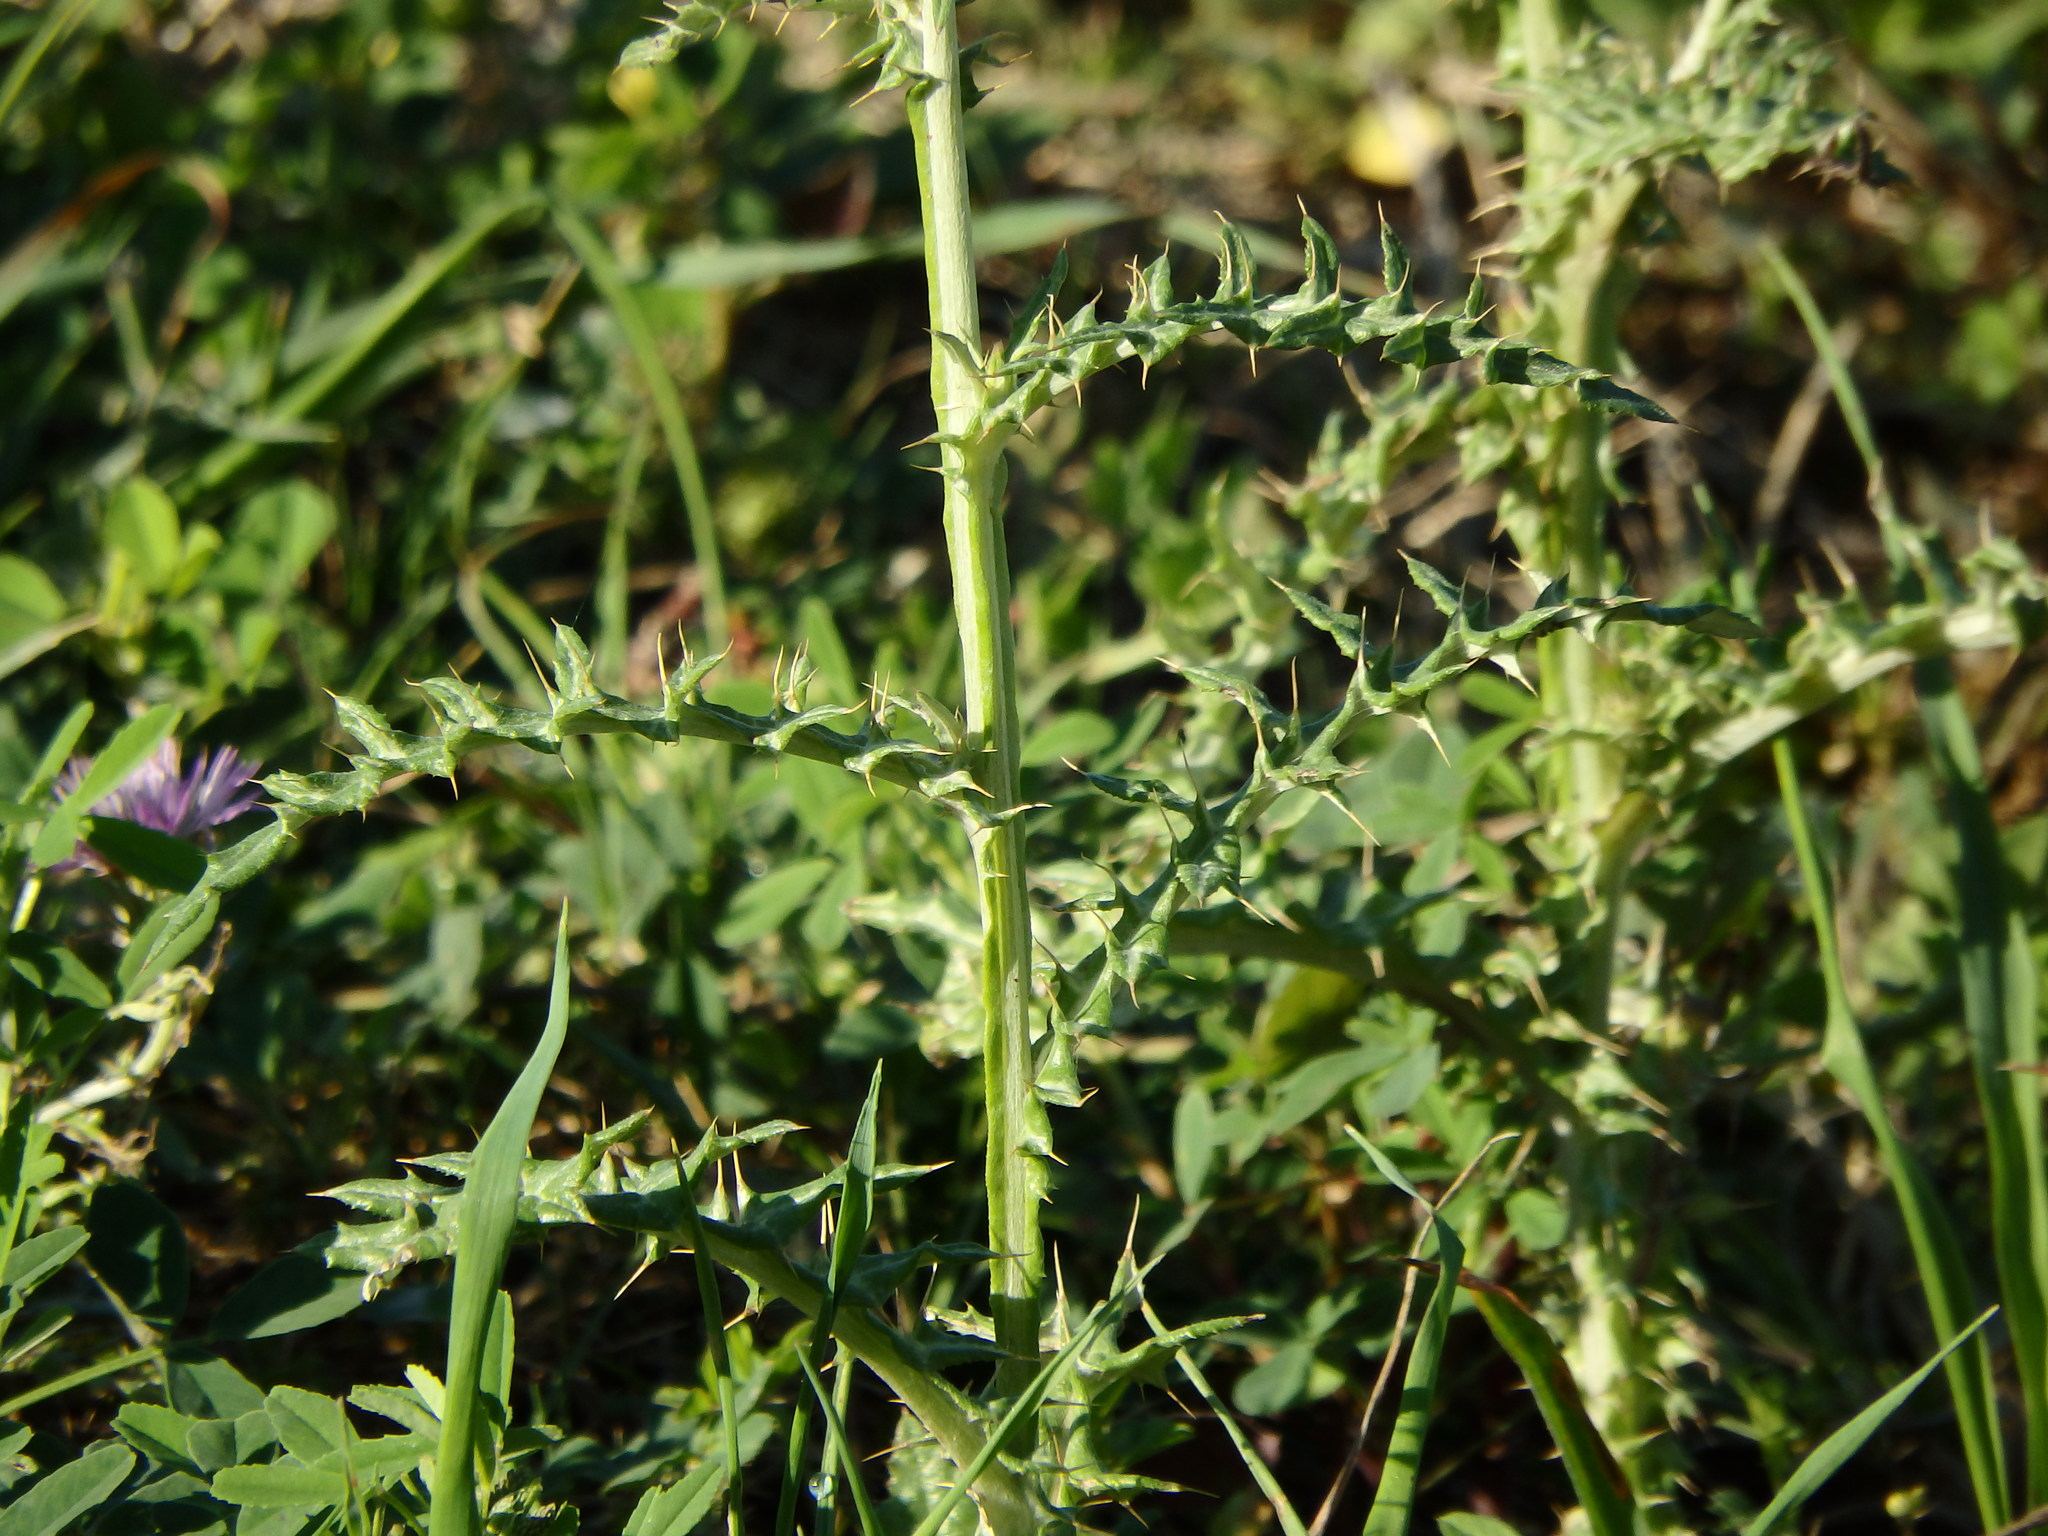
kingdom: Plantae
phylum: Tracheophyta
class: Magnoliopsida
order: Asterales
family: Asteraceae
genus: Galactites
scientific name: Galactites tomentosa
